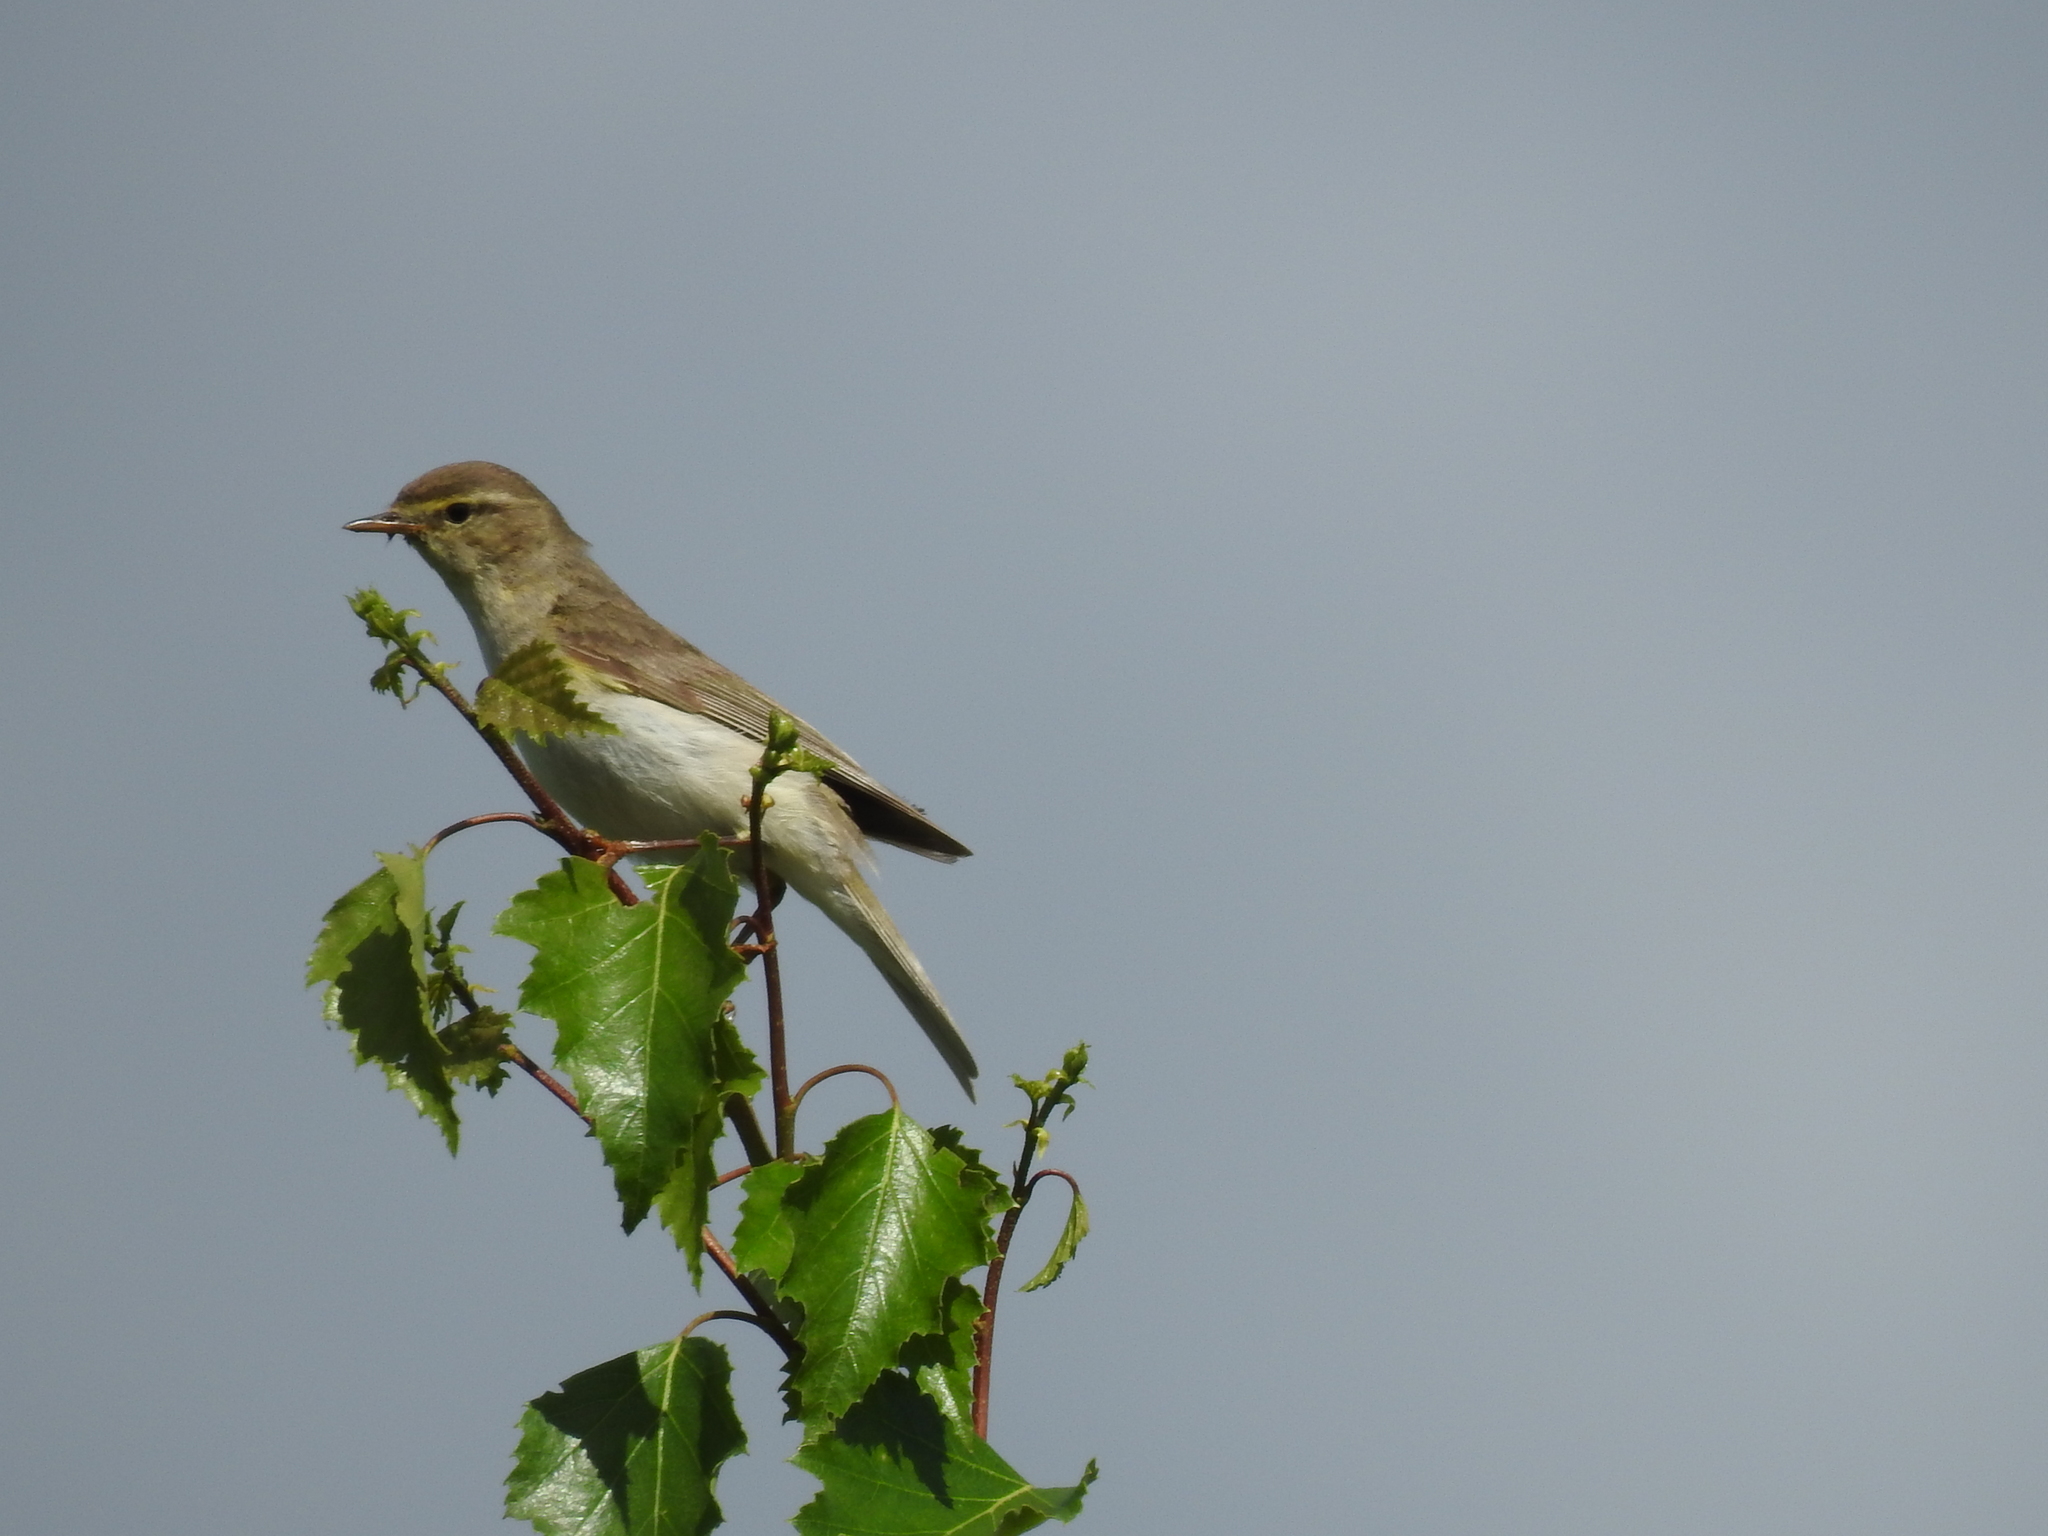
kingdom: Animalia
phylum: Chordata
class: Aves
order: Passeriformes
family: Phylloscopidae
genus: Phylloscopus
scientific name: Phylloscopus trochilus
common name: Willow warbler
